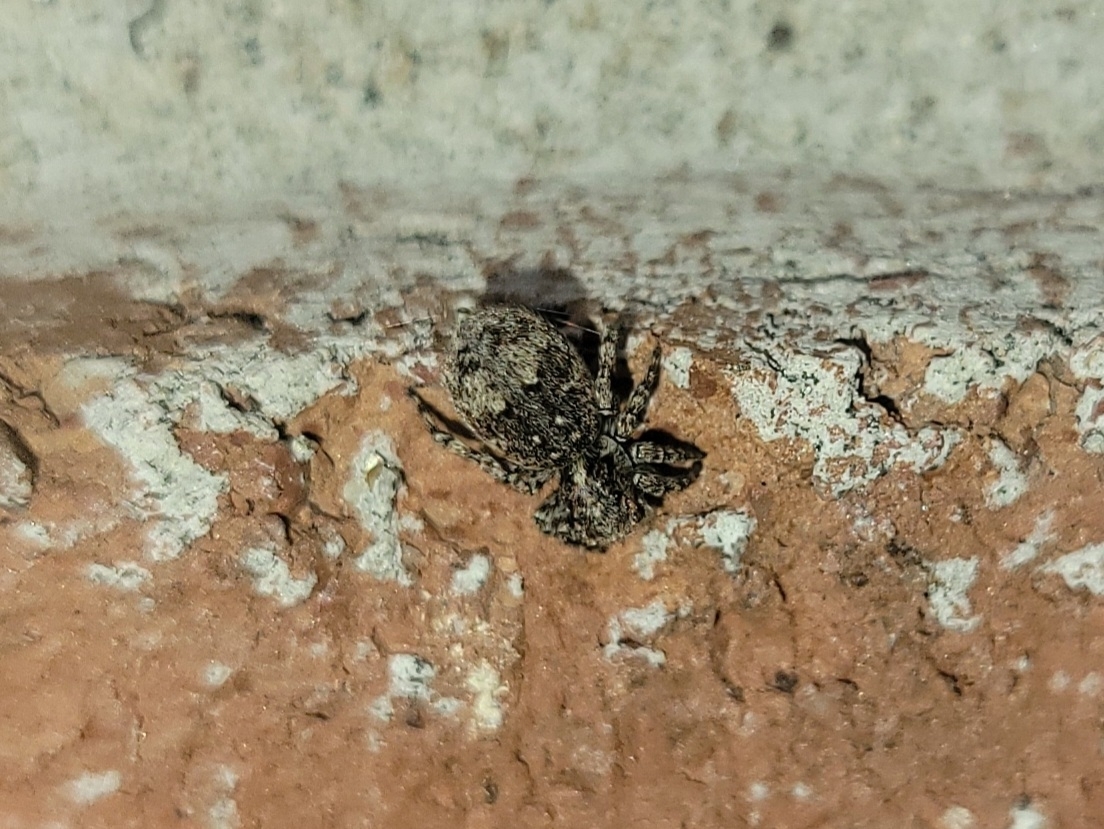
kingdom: Animalia
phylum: Arthropoda
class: Arachnida
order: Araneae
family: Salticidae
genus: Attulus
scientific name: Attulus fasciger
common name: Asiatic wall jumping spider
